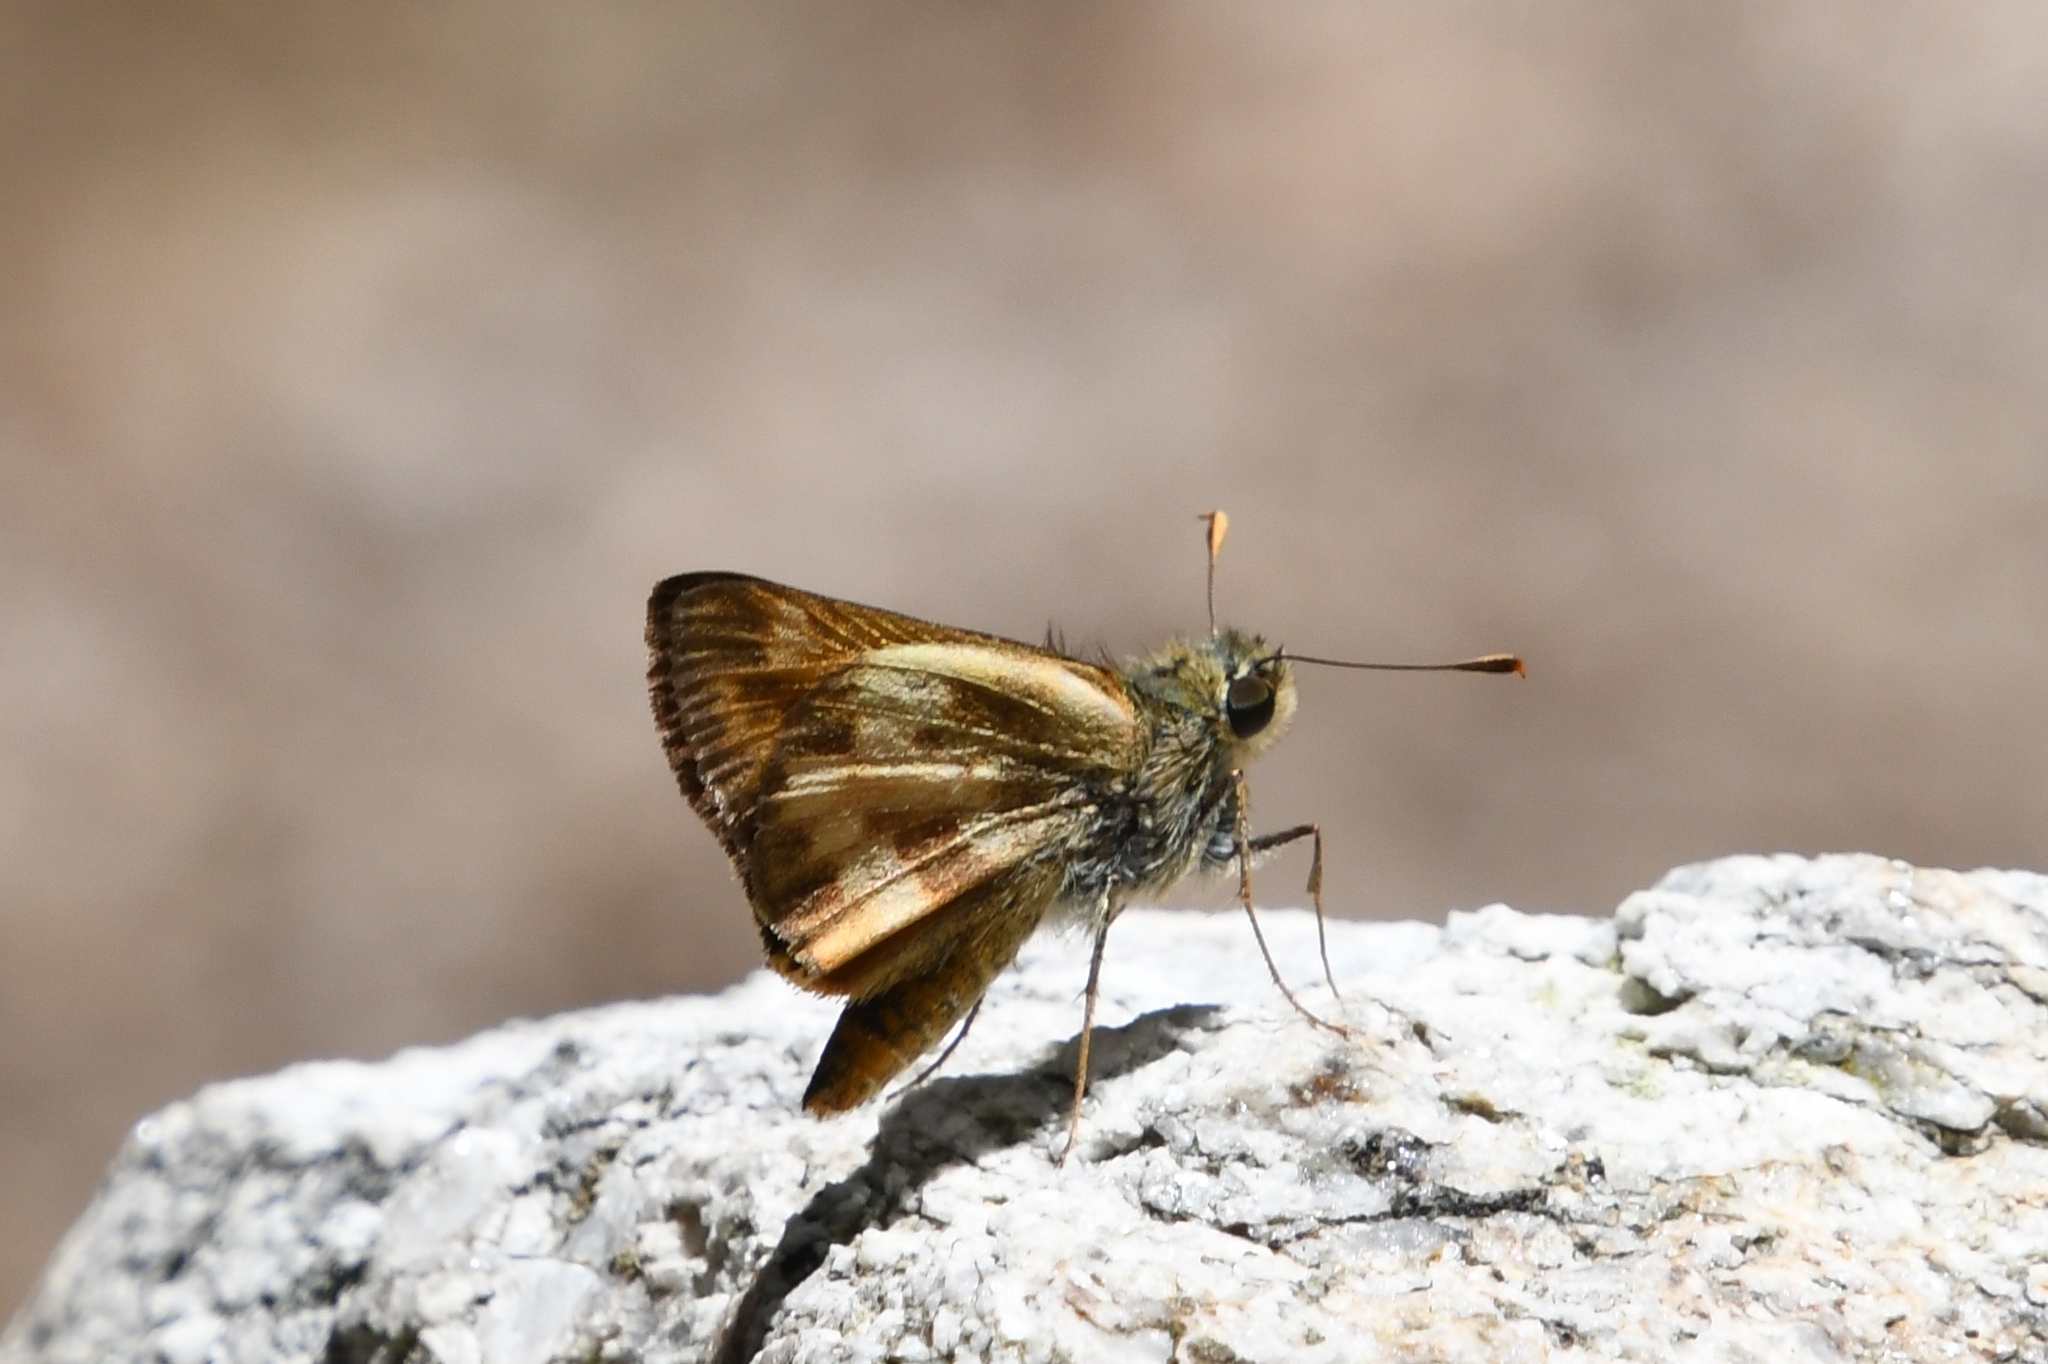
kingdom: Animalia
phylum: Arthropoda
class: Insecta
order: Lepidoptera
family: Hesperiidae
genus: Lon
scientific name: Lon taxiles
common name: Taxiles skipper
